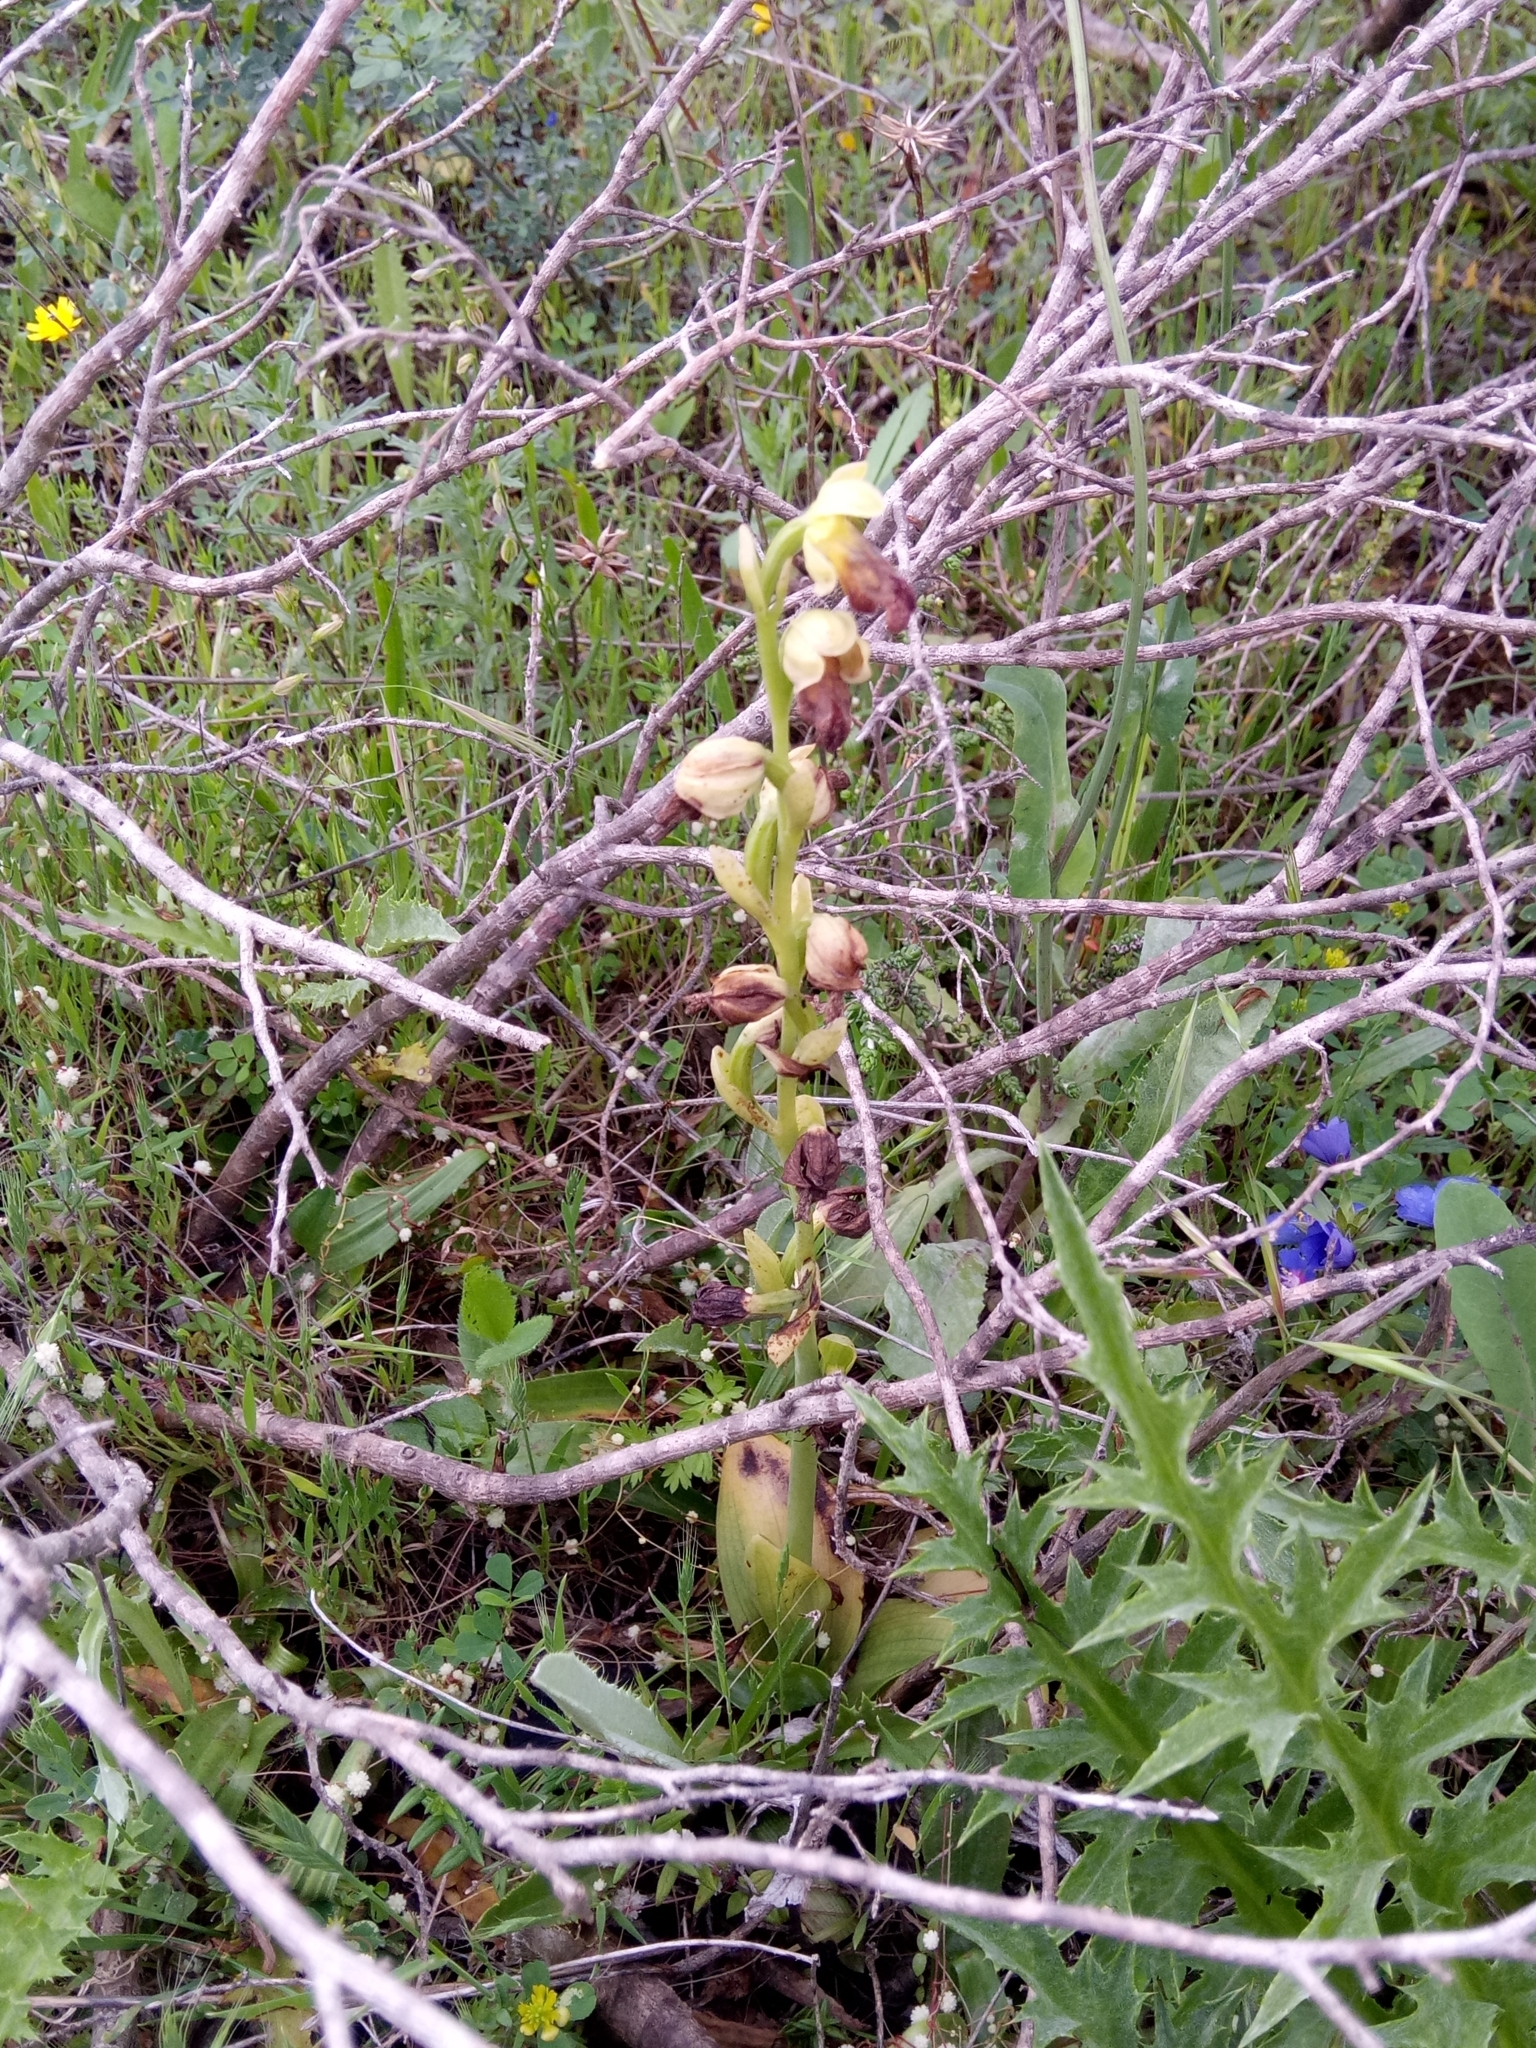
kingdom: Plantae
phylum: Tracheophyta
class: Liliopsida
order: Asparagales
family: Orchidaceae
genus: Ophrys
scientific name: Ophrys fusca
